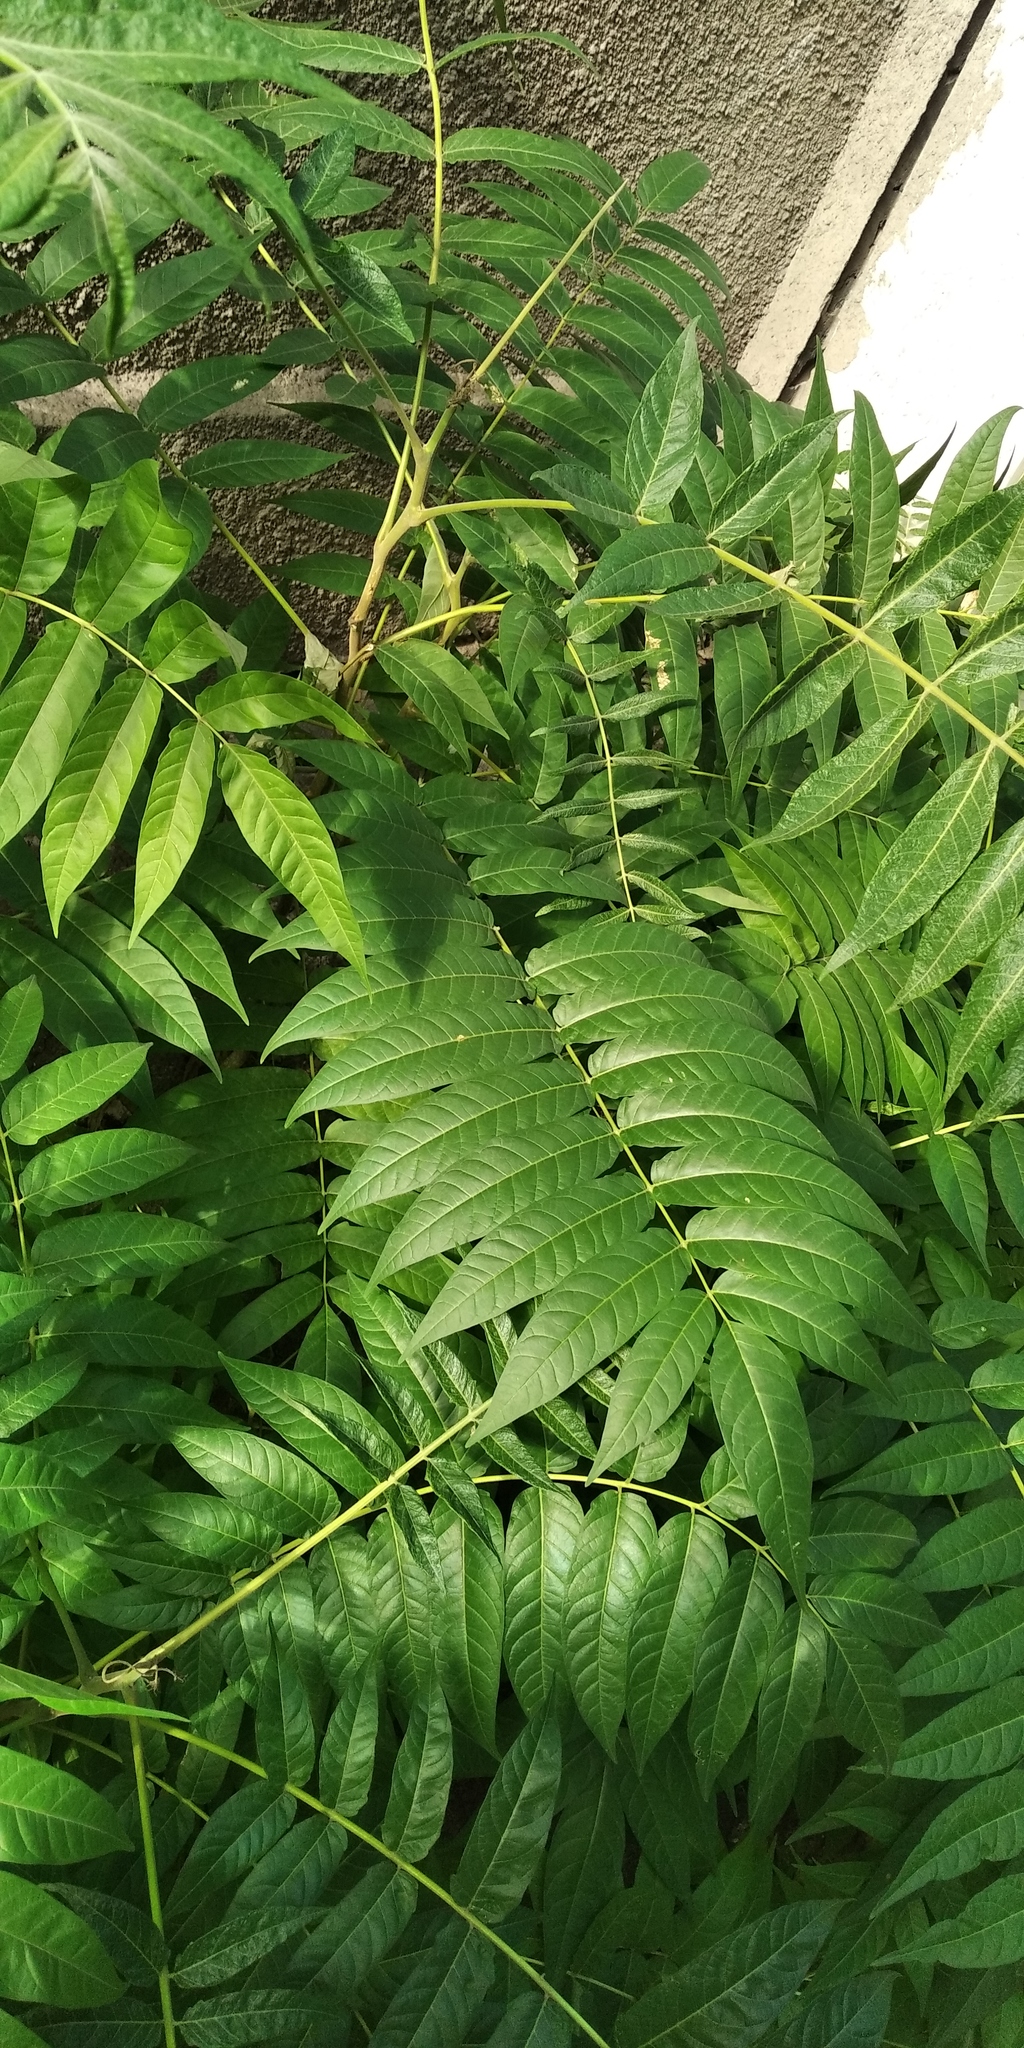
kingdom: Plantae
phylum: Tracheophyta
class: Magnoliopsida
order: Sapindales
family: Simaroubaceae
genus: Ailanthus
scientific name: Ailanthus altissima
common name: Tree-of-heaven
